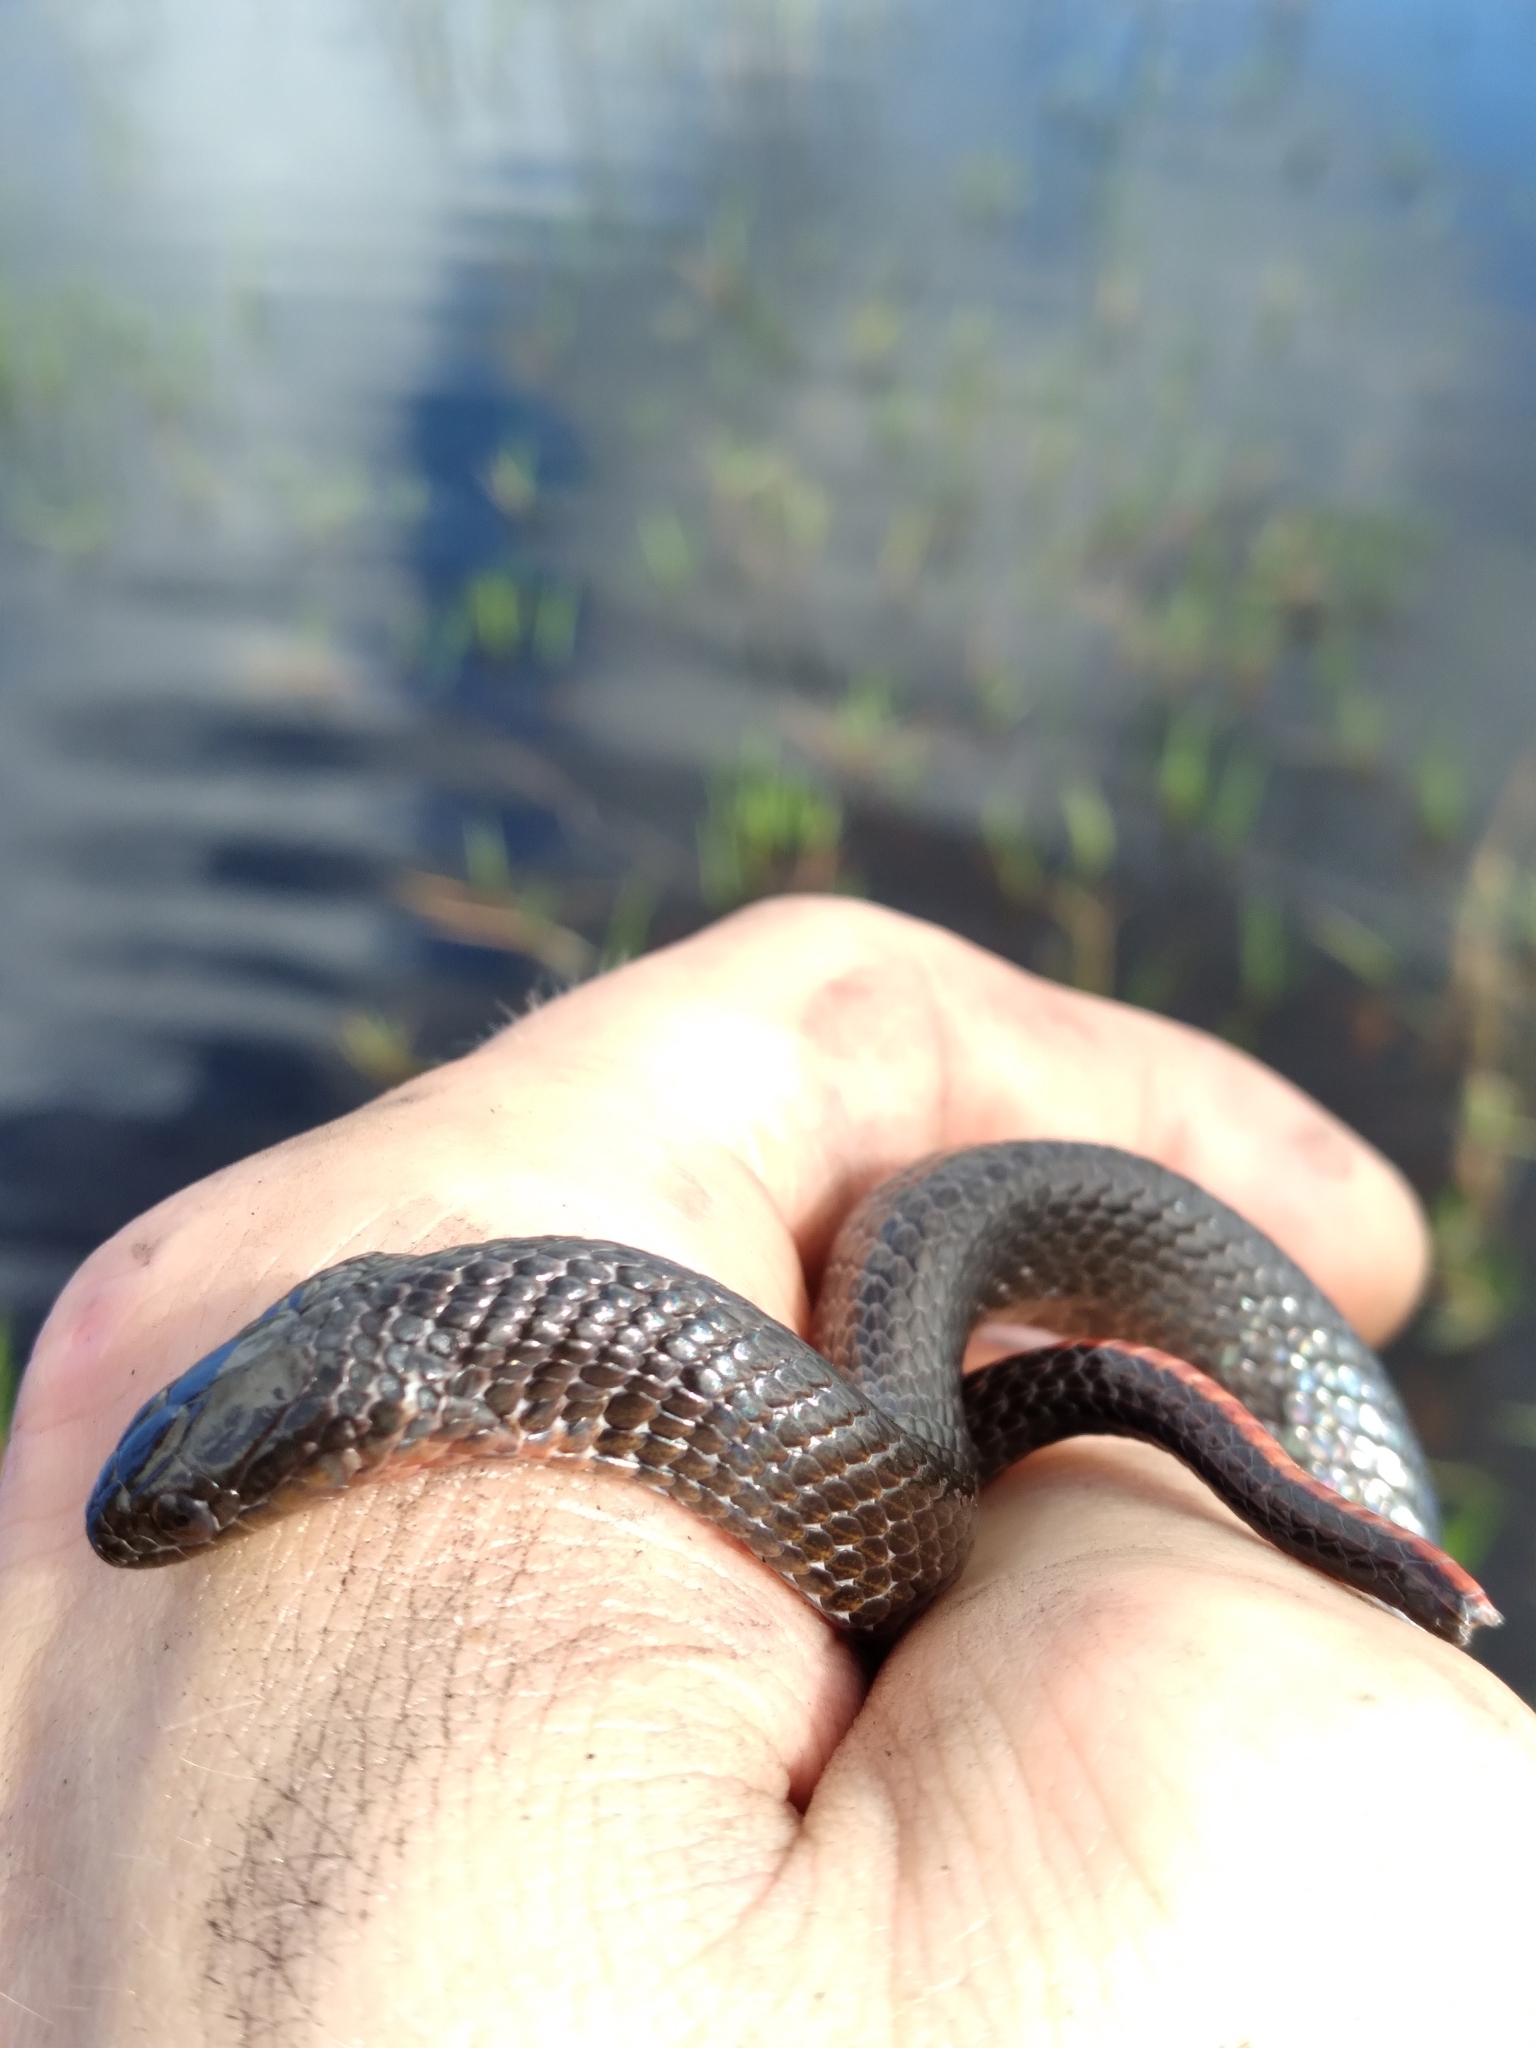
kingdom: Animalia
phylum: Chordata
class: Squamata
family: Colubridae
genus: Liodytes
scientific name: Liodytes pygaea
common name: Black swamp snake
